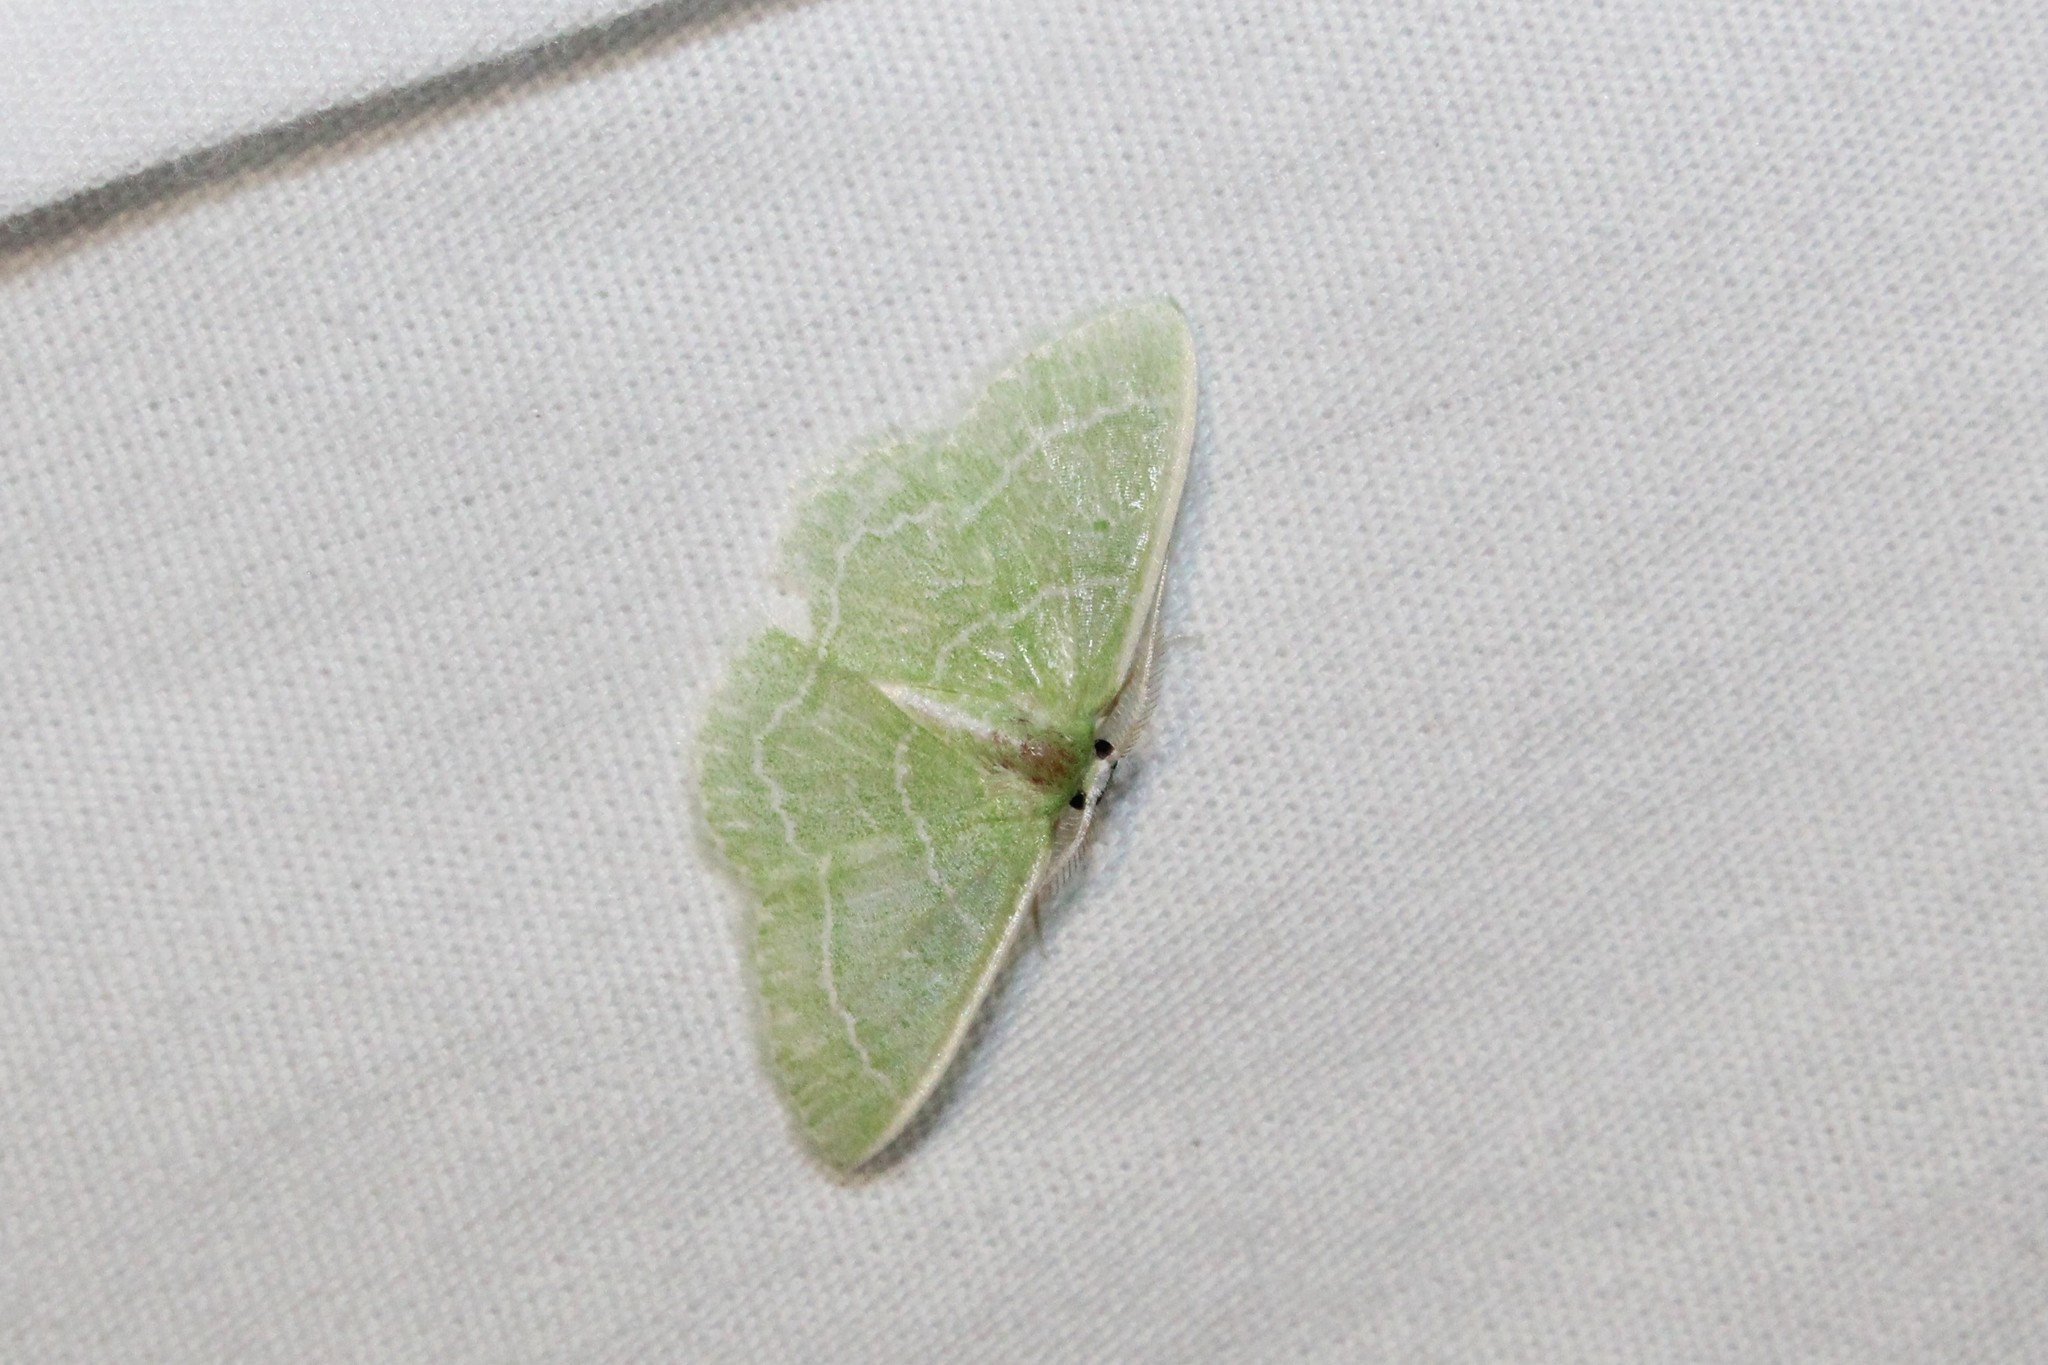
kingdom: Animalia
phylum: Arthropoda
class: Insecta
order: Lepidoptera
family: Geometridae
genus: Synchlora
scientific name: Synchlora aerata
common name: Wavy-lined emerald
